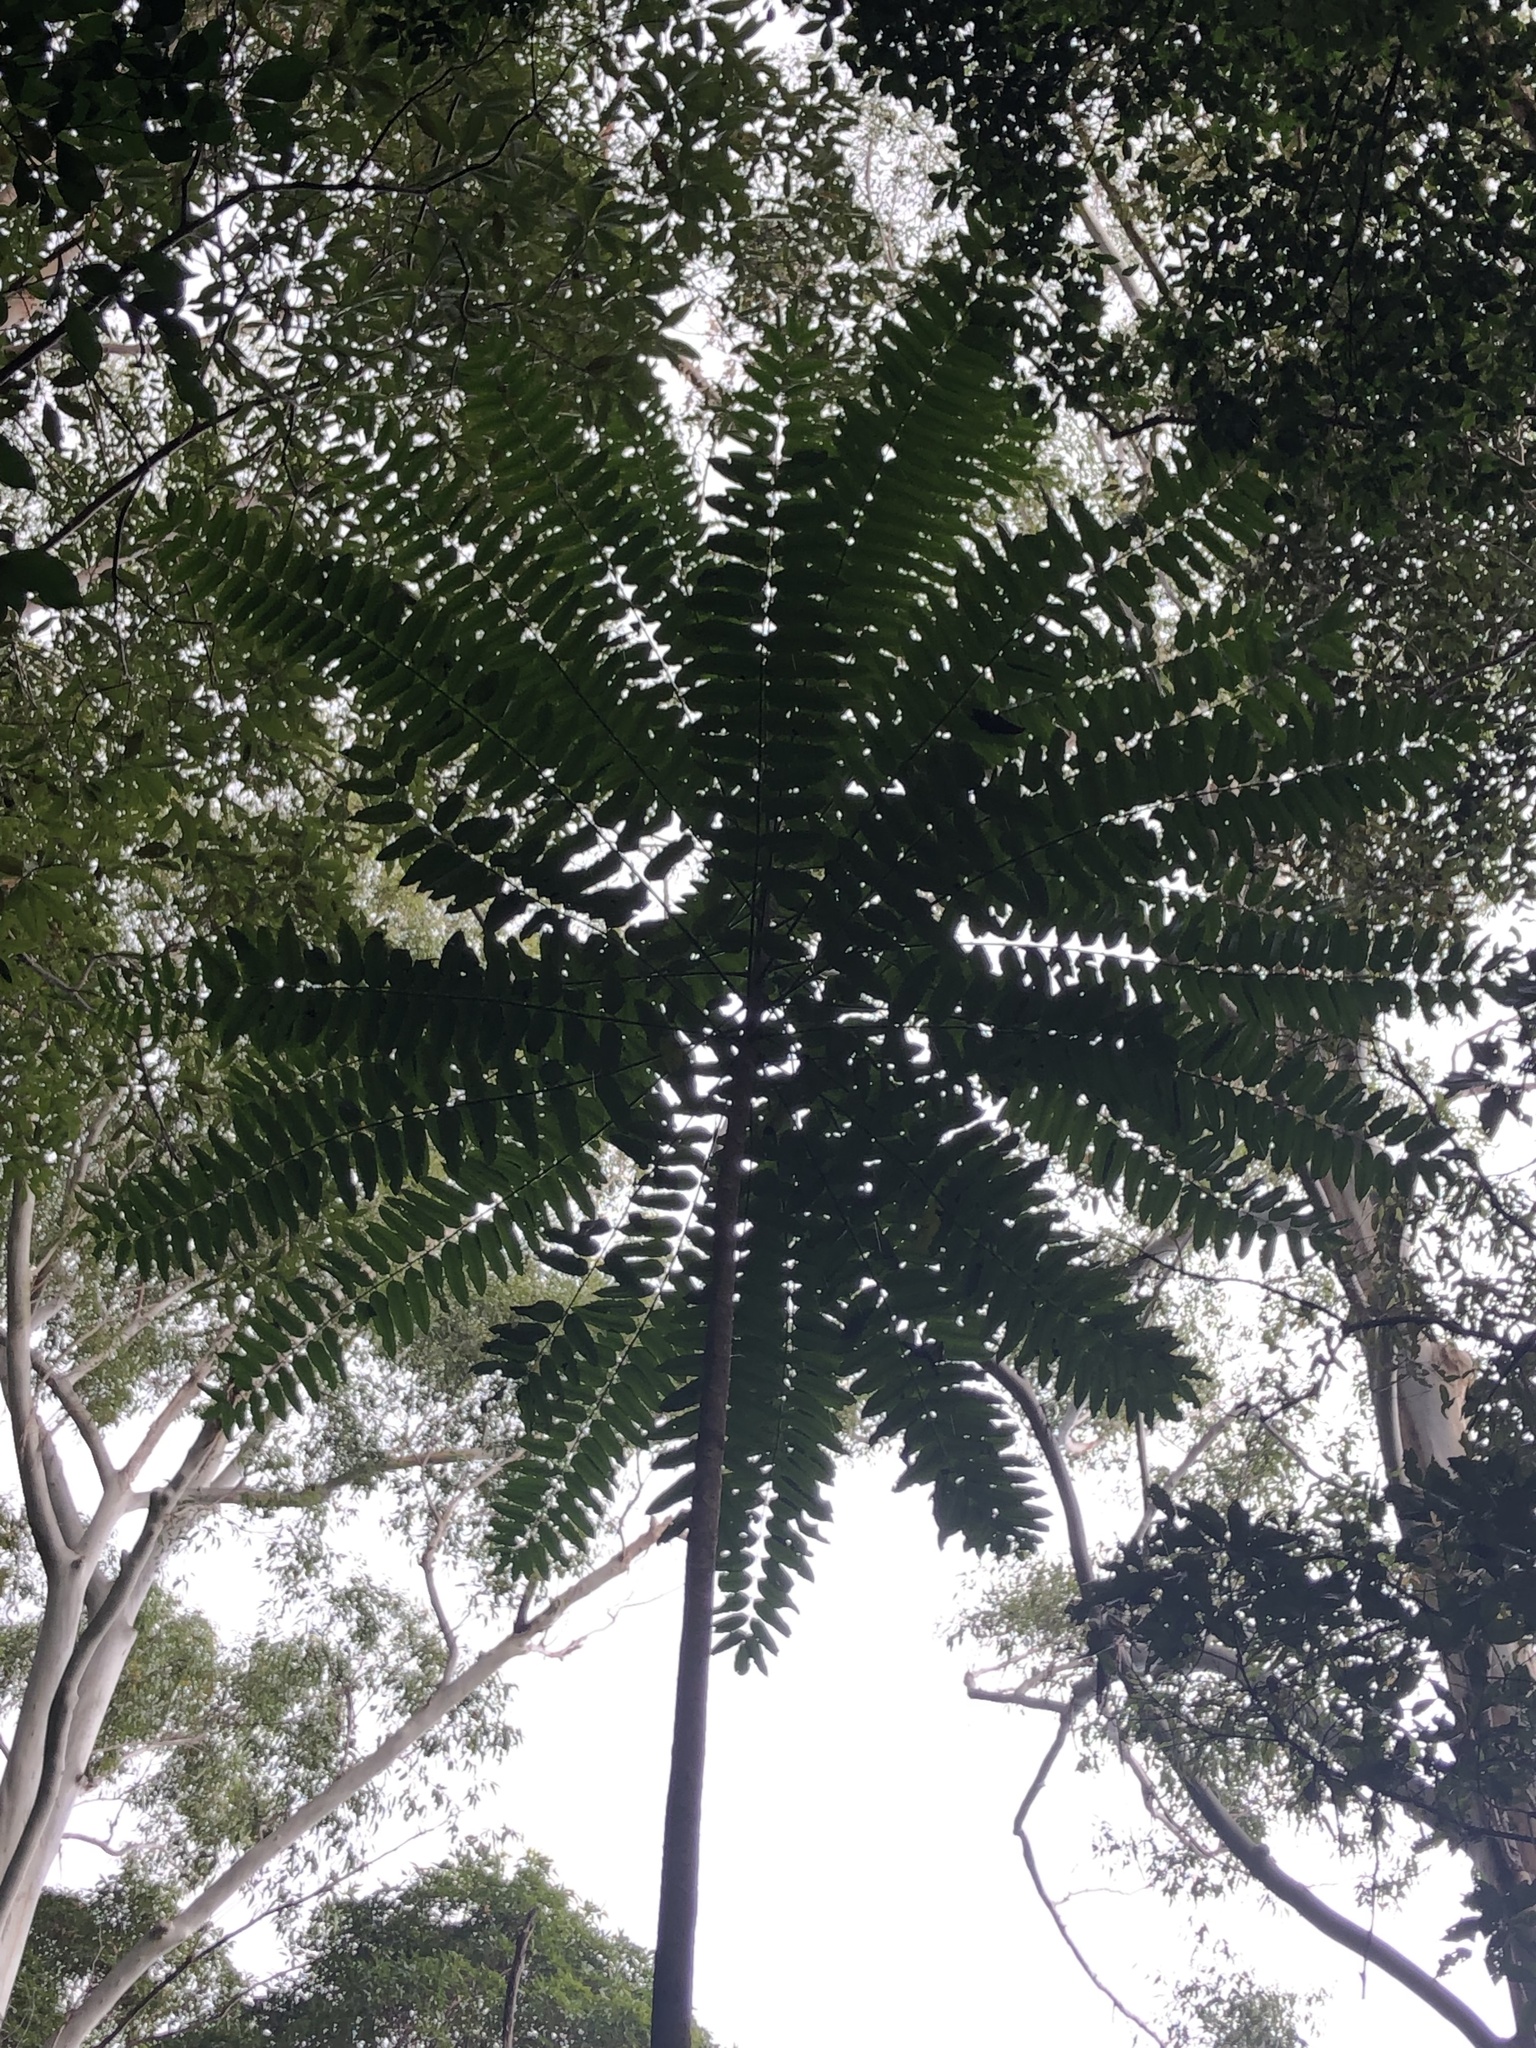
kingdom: Plantae
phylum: Tracheophyta
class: Magnoliopsida
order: Apiales
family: Araliaceae
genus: Polyscias
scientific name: Polyscias murrayi
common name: Pencil cedar
